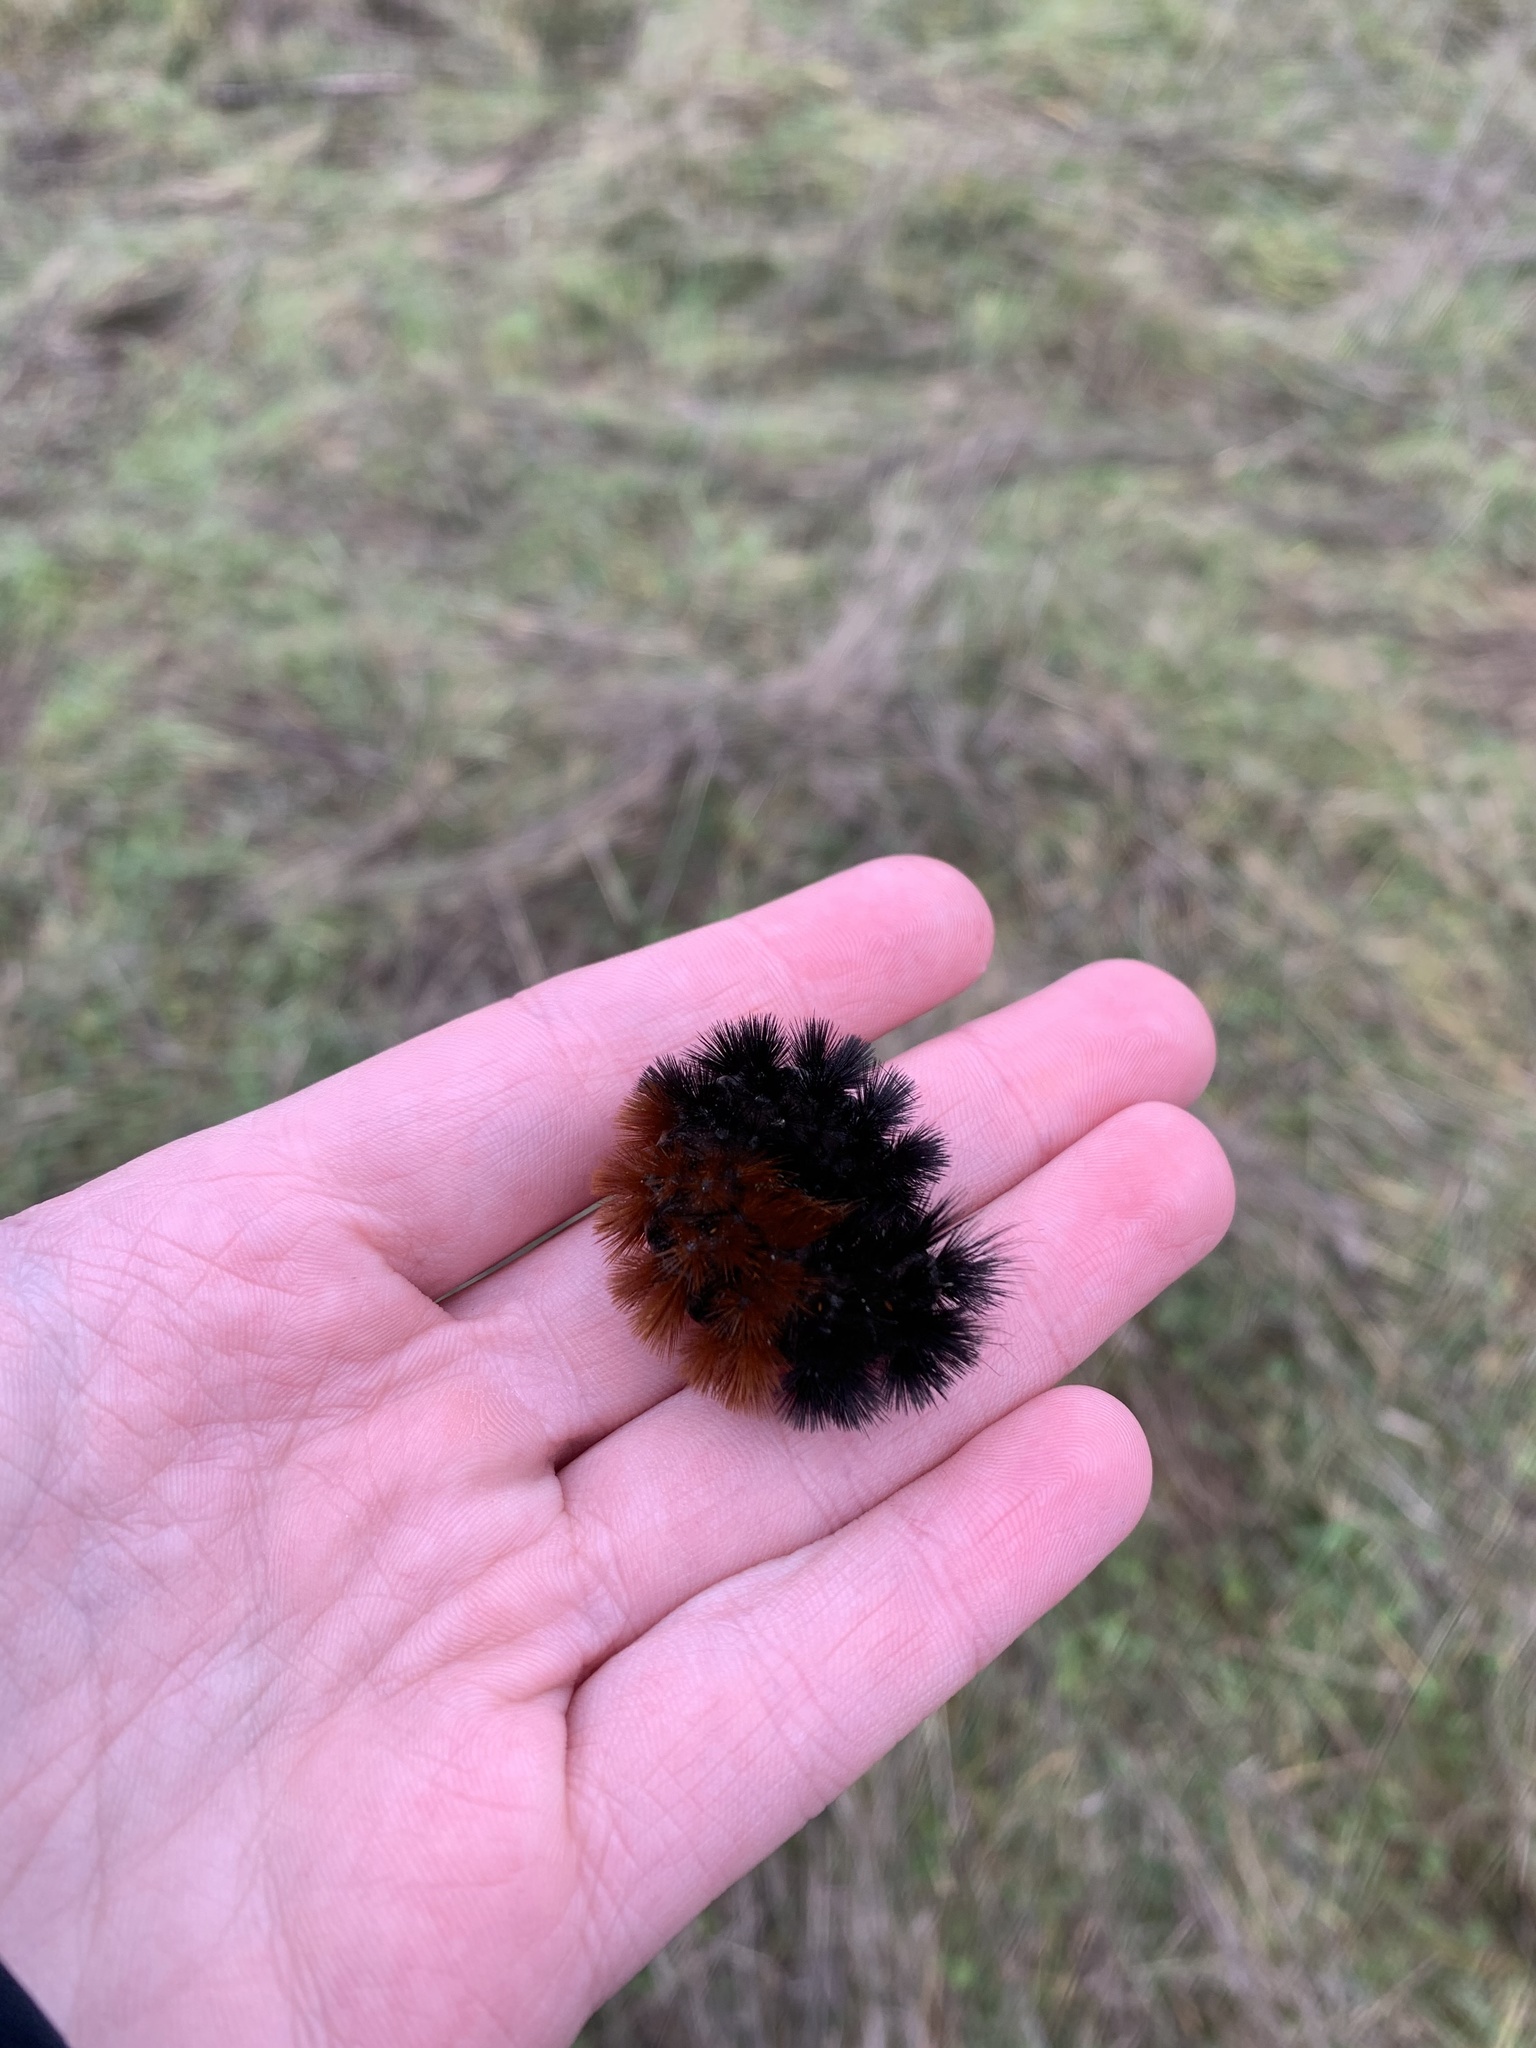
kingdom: Animalia
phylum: Arthropoda
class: Insecta
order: Lepidoptera
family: Erebidae
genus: Pyrrharctia
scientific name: Pyrrharctia isabella
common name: Isabella tiger moth
